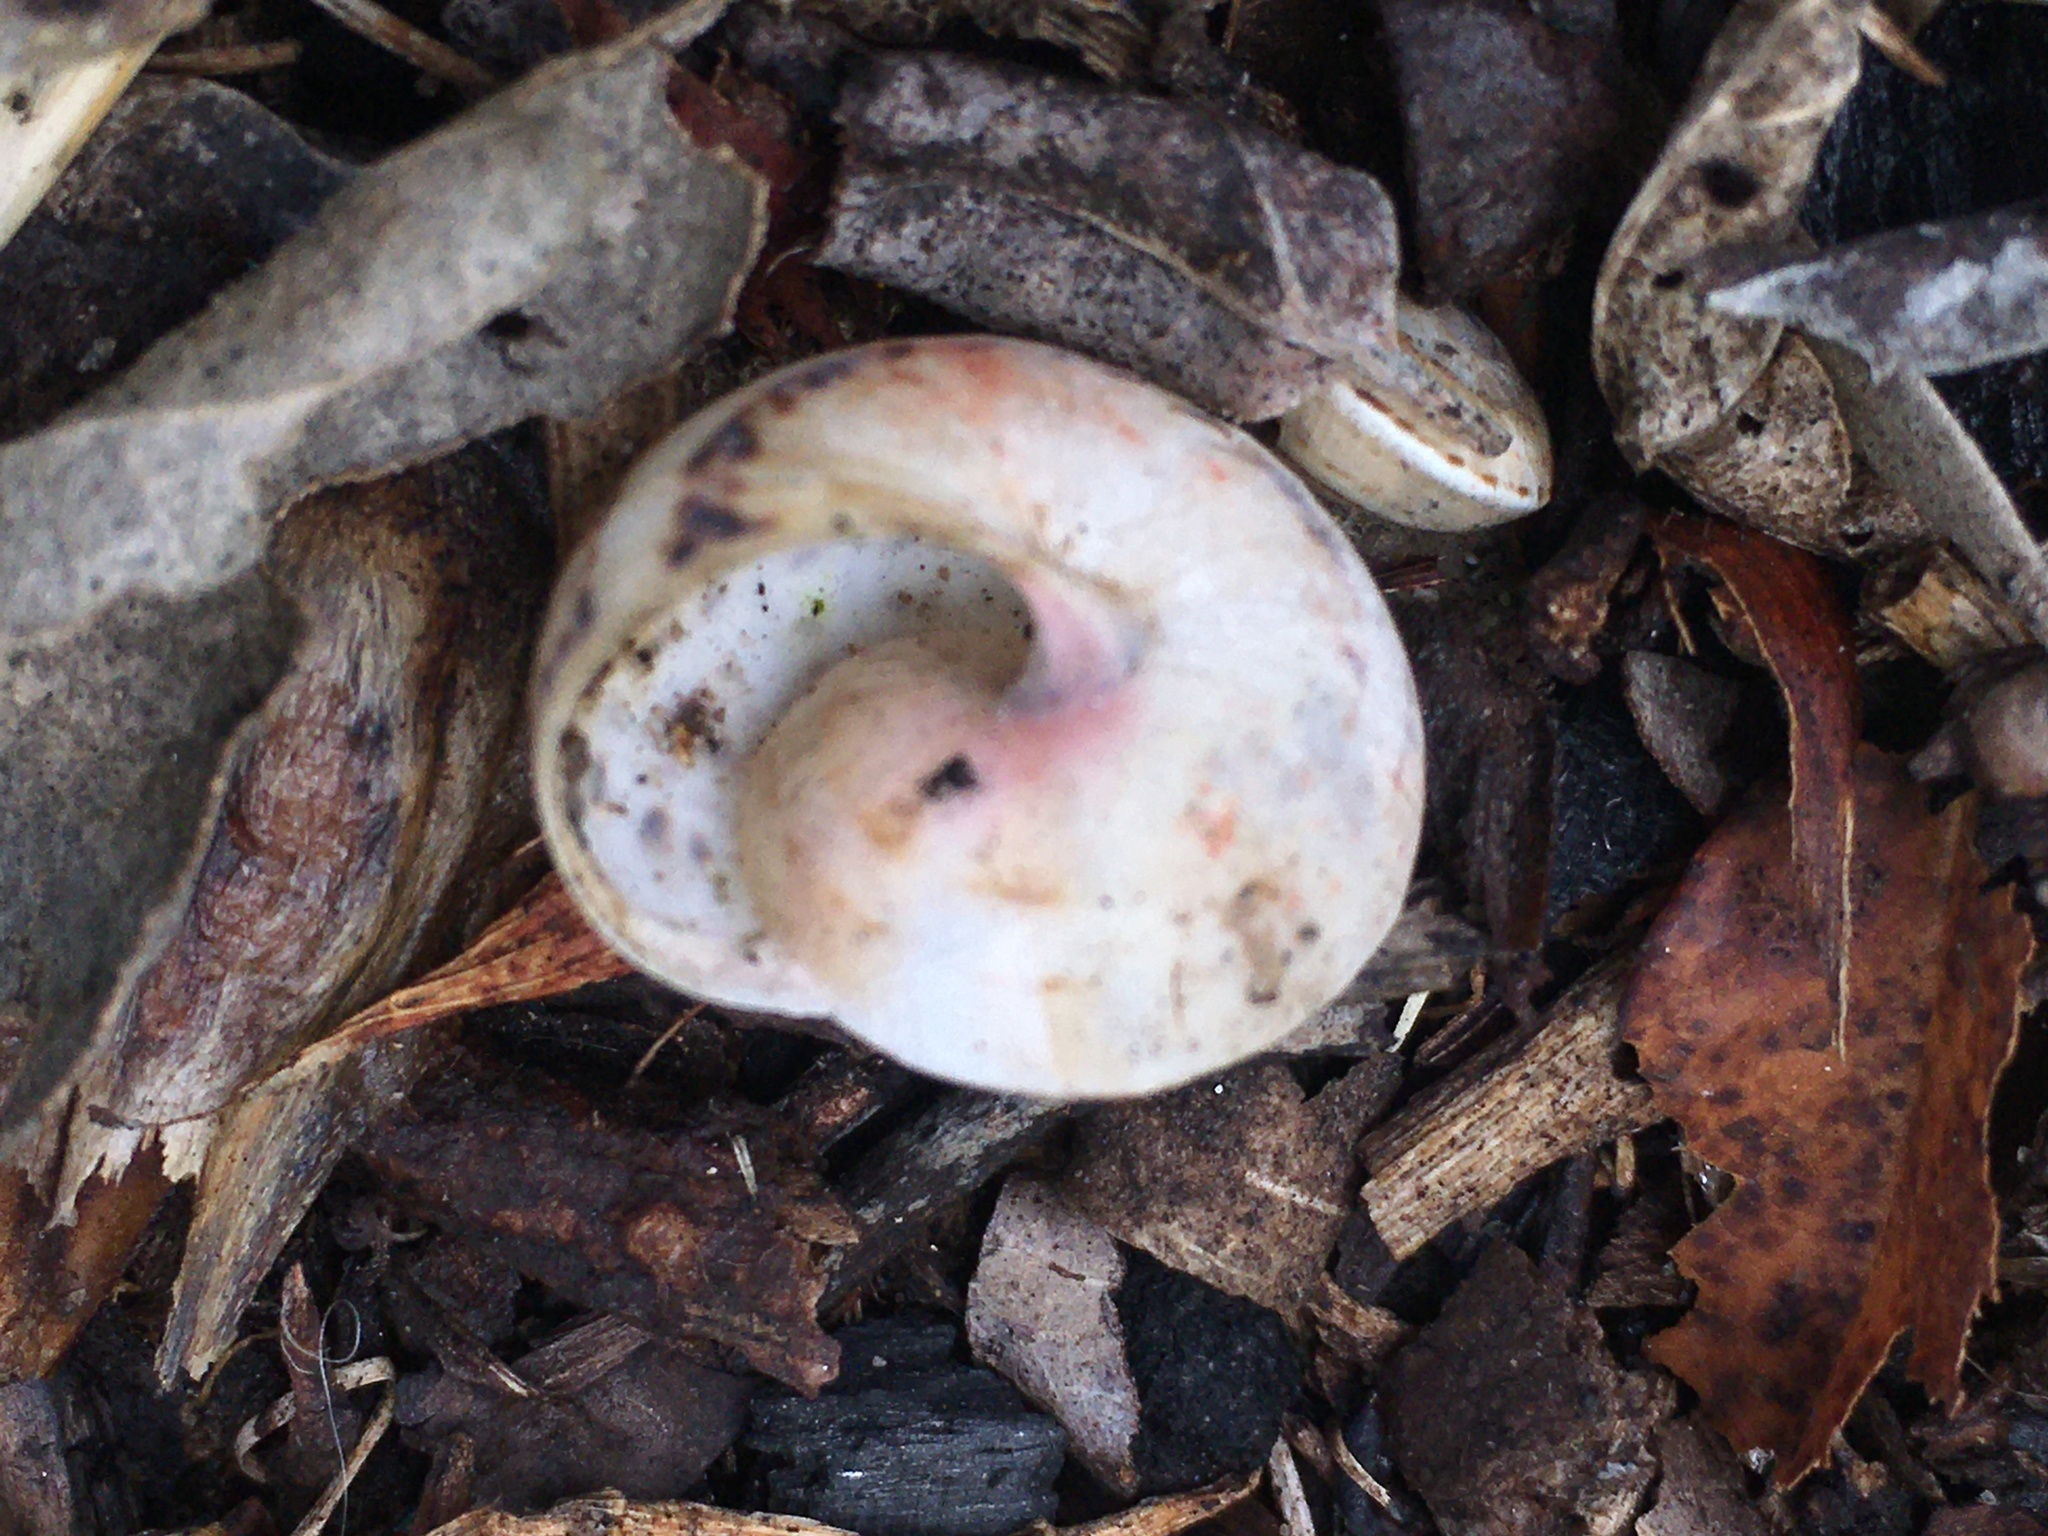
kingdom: Animalia
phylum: Mollusca
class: Gastropoda
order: Stylommatophora
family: Helicidae
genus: Theba
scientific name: Theba pisana
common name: White snail
